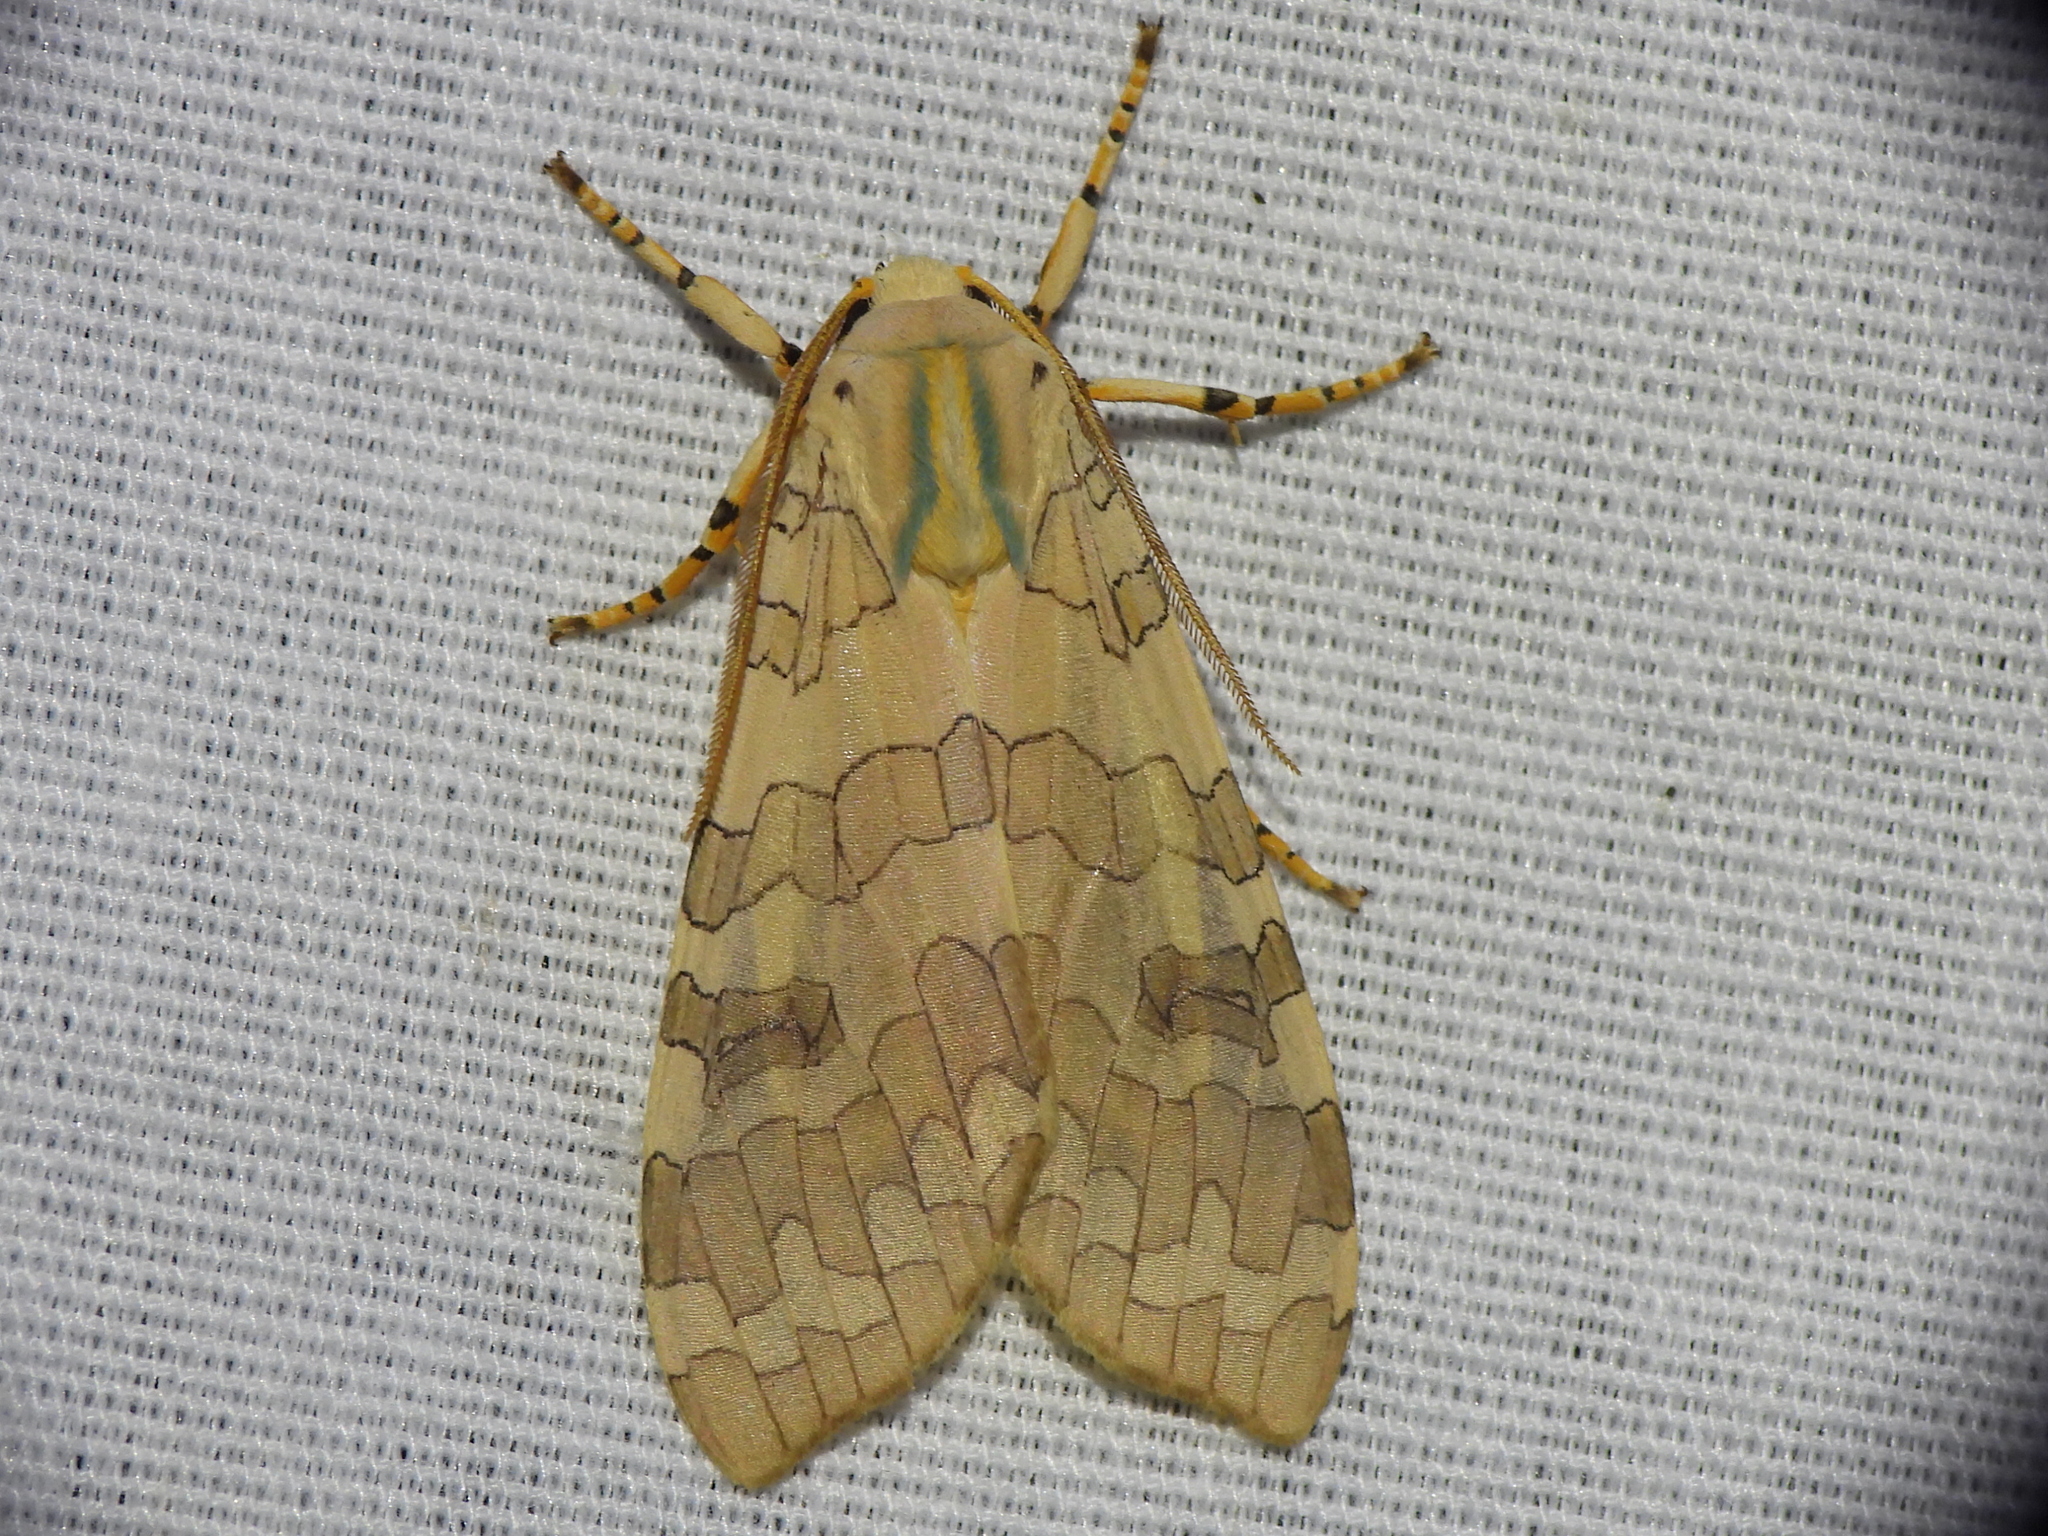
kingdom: Animalia
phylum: Arthropoda
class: Insecta
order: Lepidoptera
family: Erebidae
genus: Halysidota
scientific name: Halysidota
